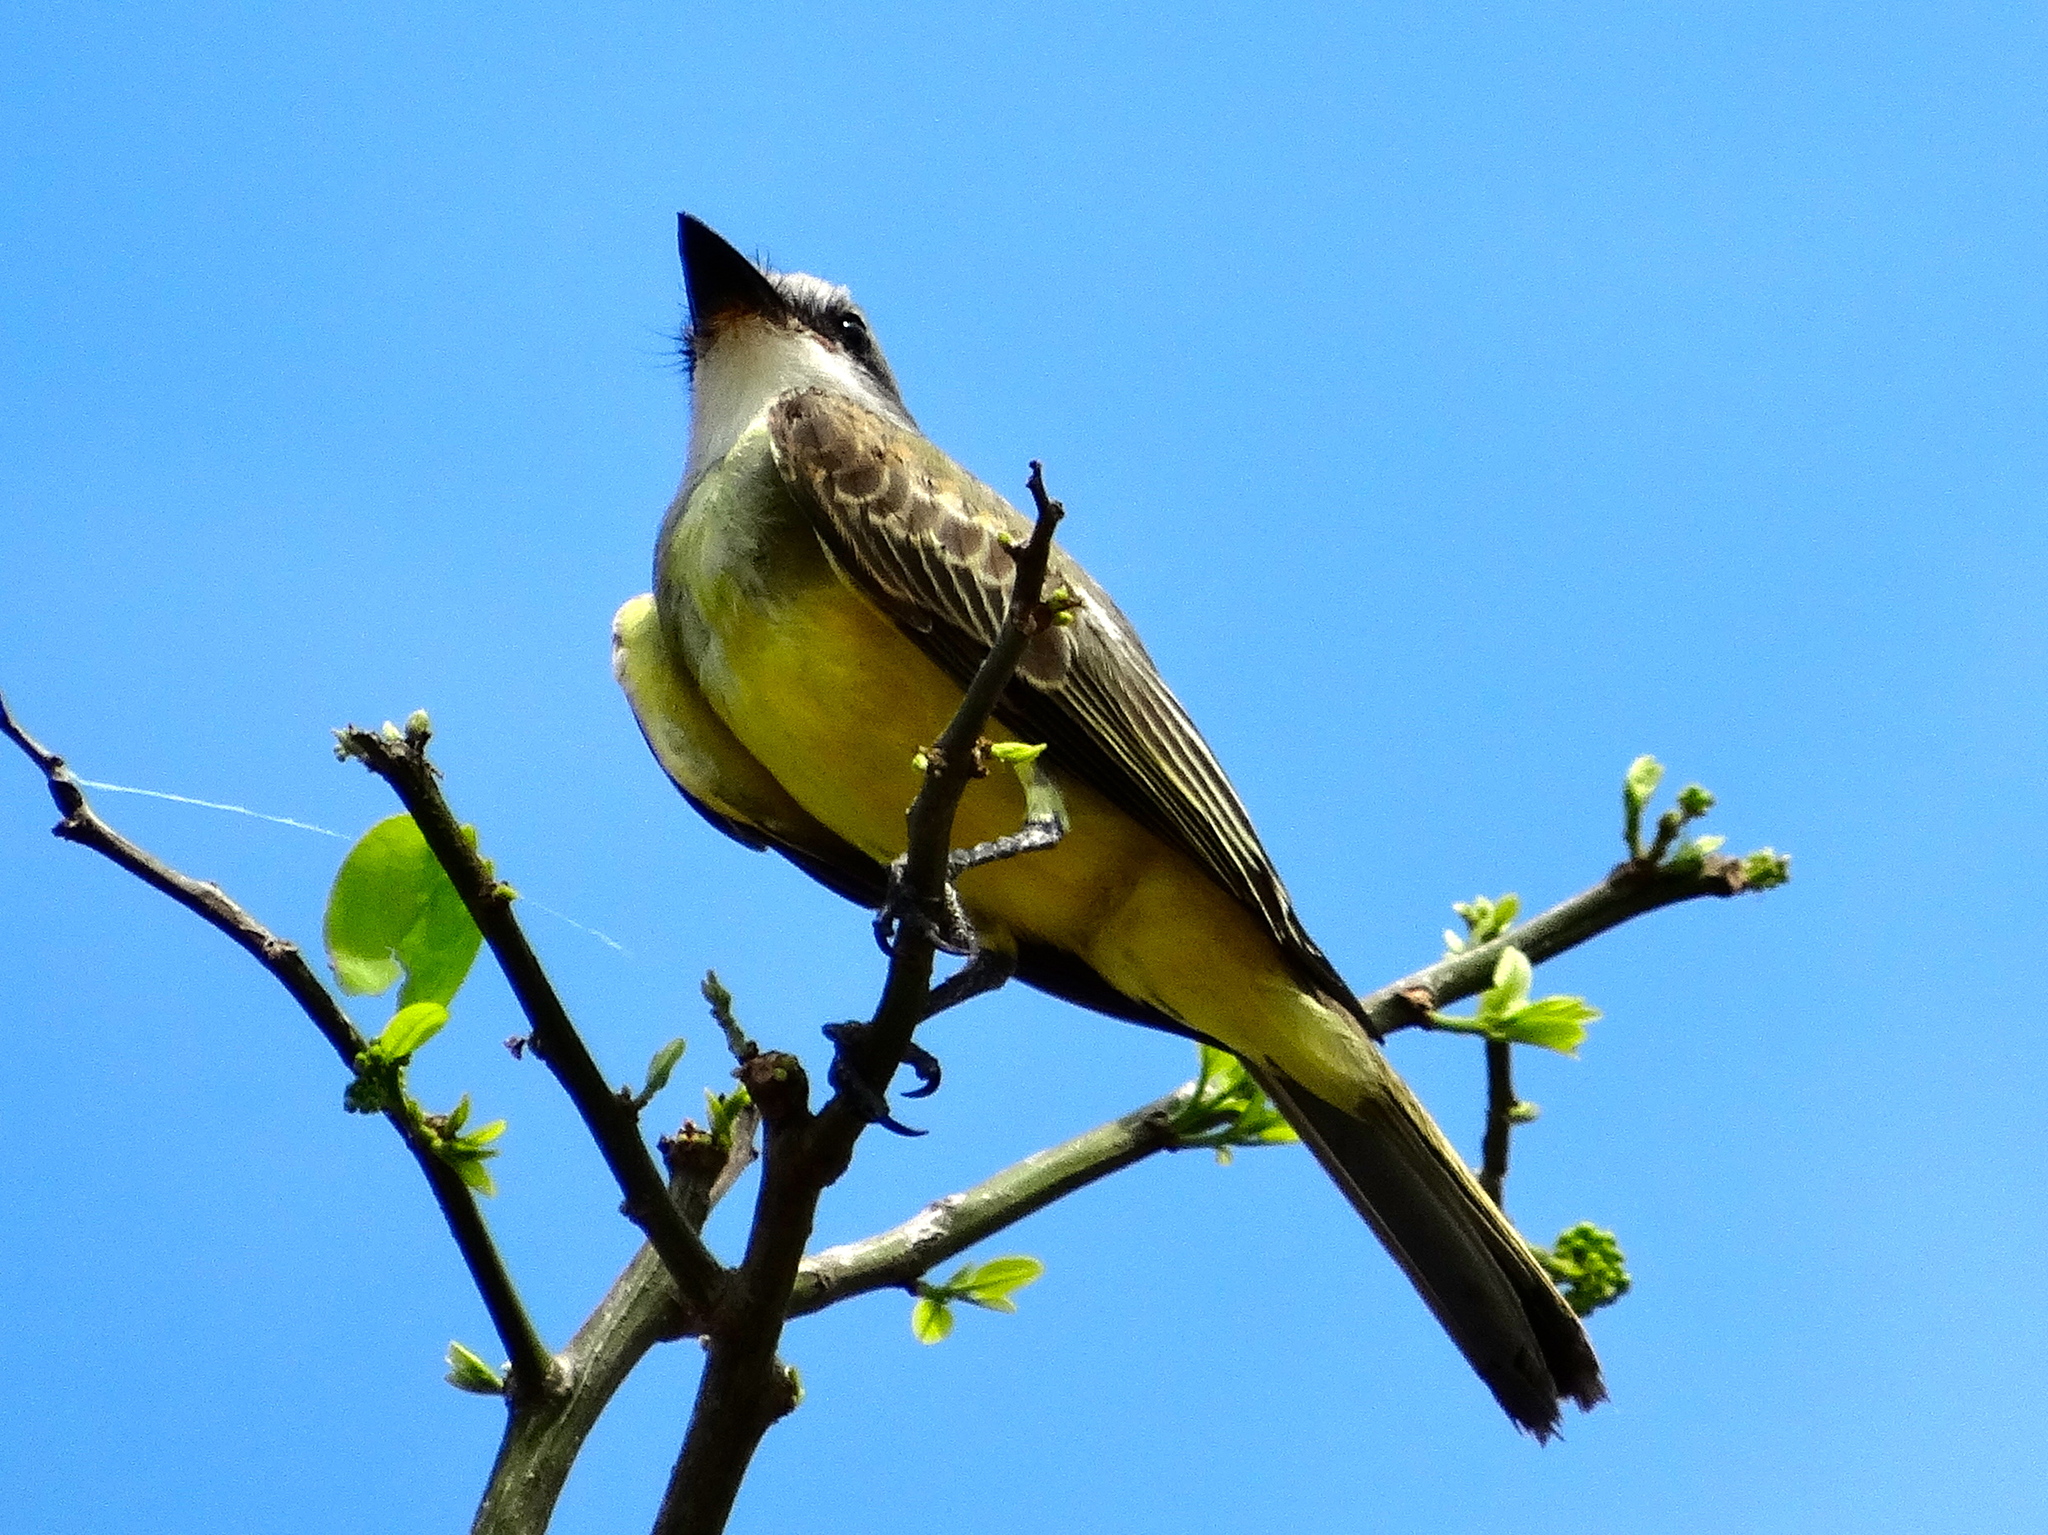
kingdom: Animalia
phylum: Chordata
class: Aves
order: Passeriformes
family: Tyrannidae
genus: Tyrannus
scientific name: Tyrannus melancholicus
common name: Tropical kingbird
